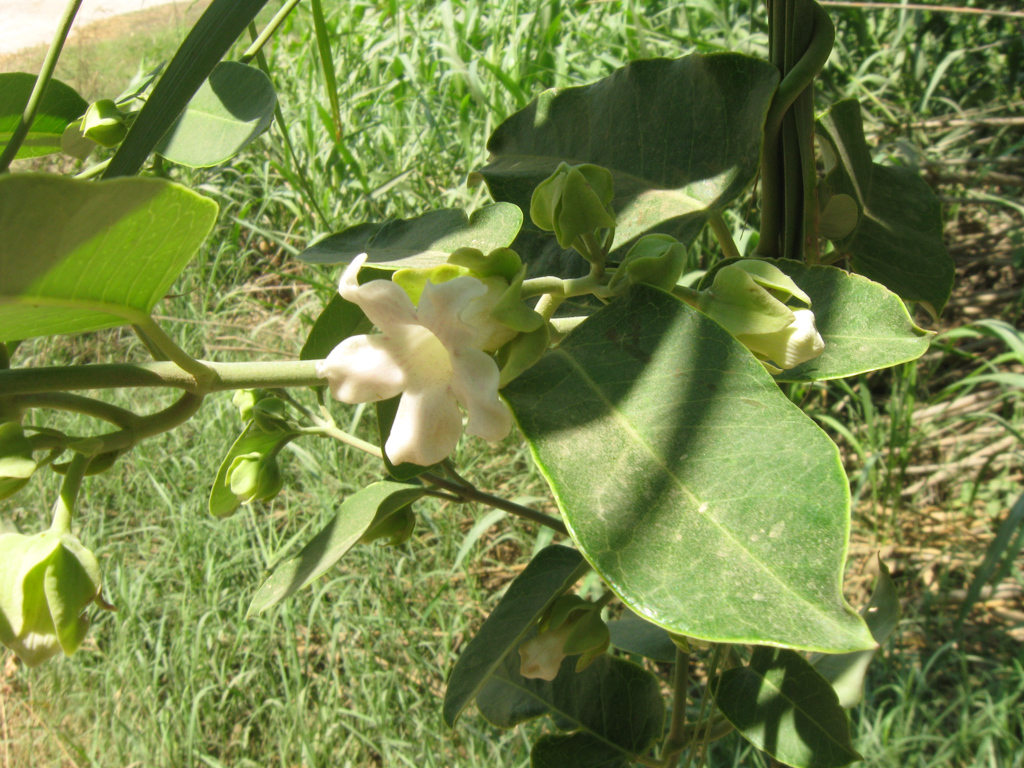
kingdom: Plantae
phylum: Tracheophyta
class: Magnoliopsida
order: Gentianales
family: Apocynaceae
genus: Araujia
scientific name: Araujia sericifera
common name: White bladderflower
